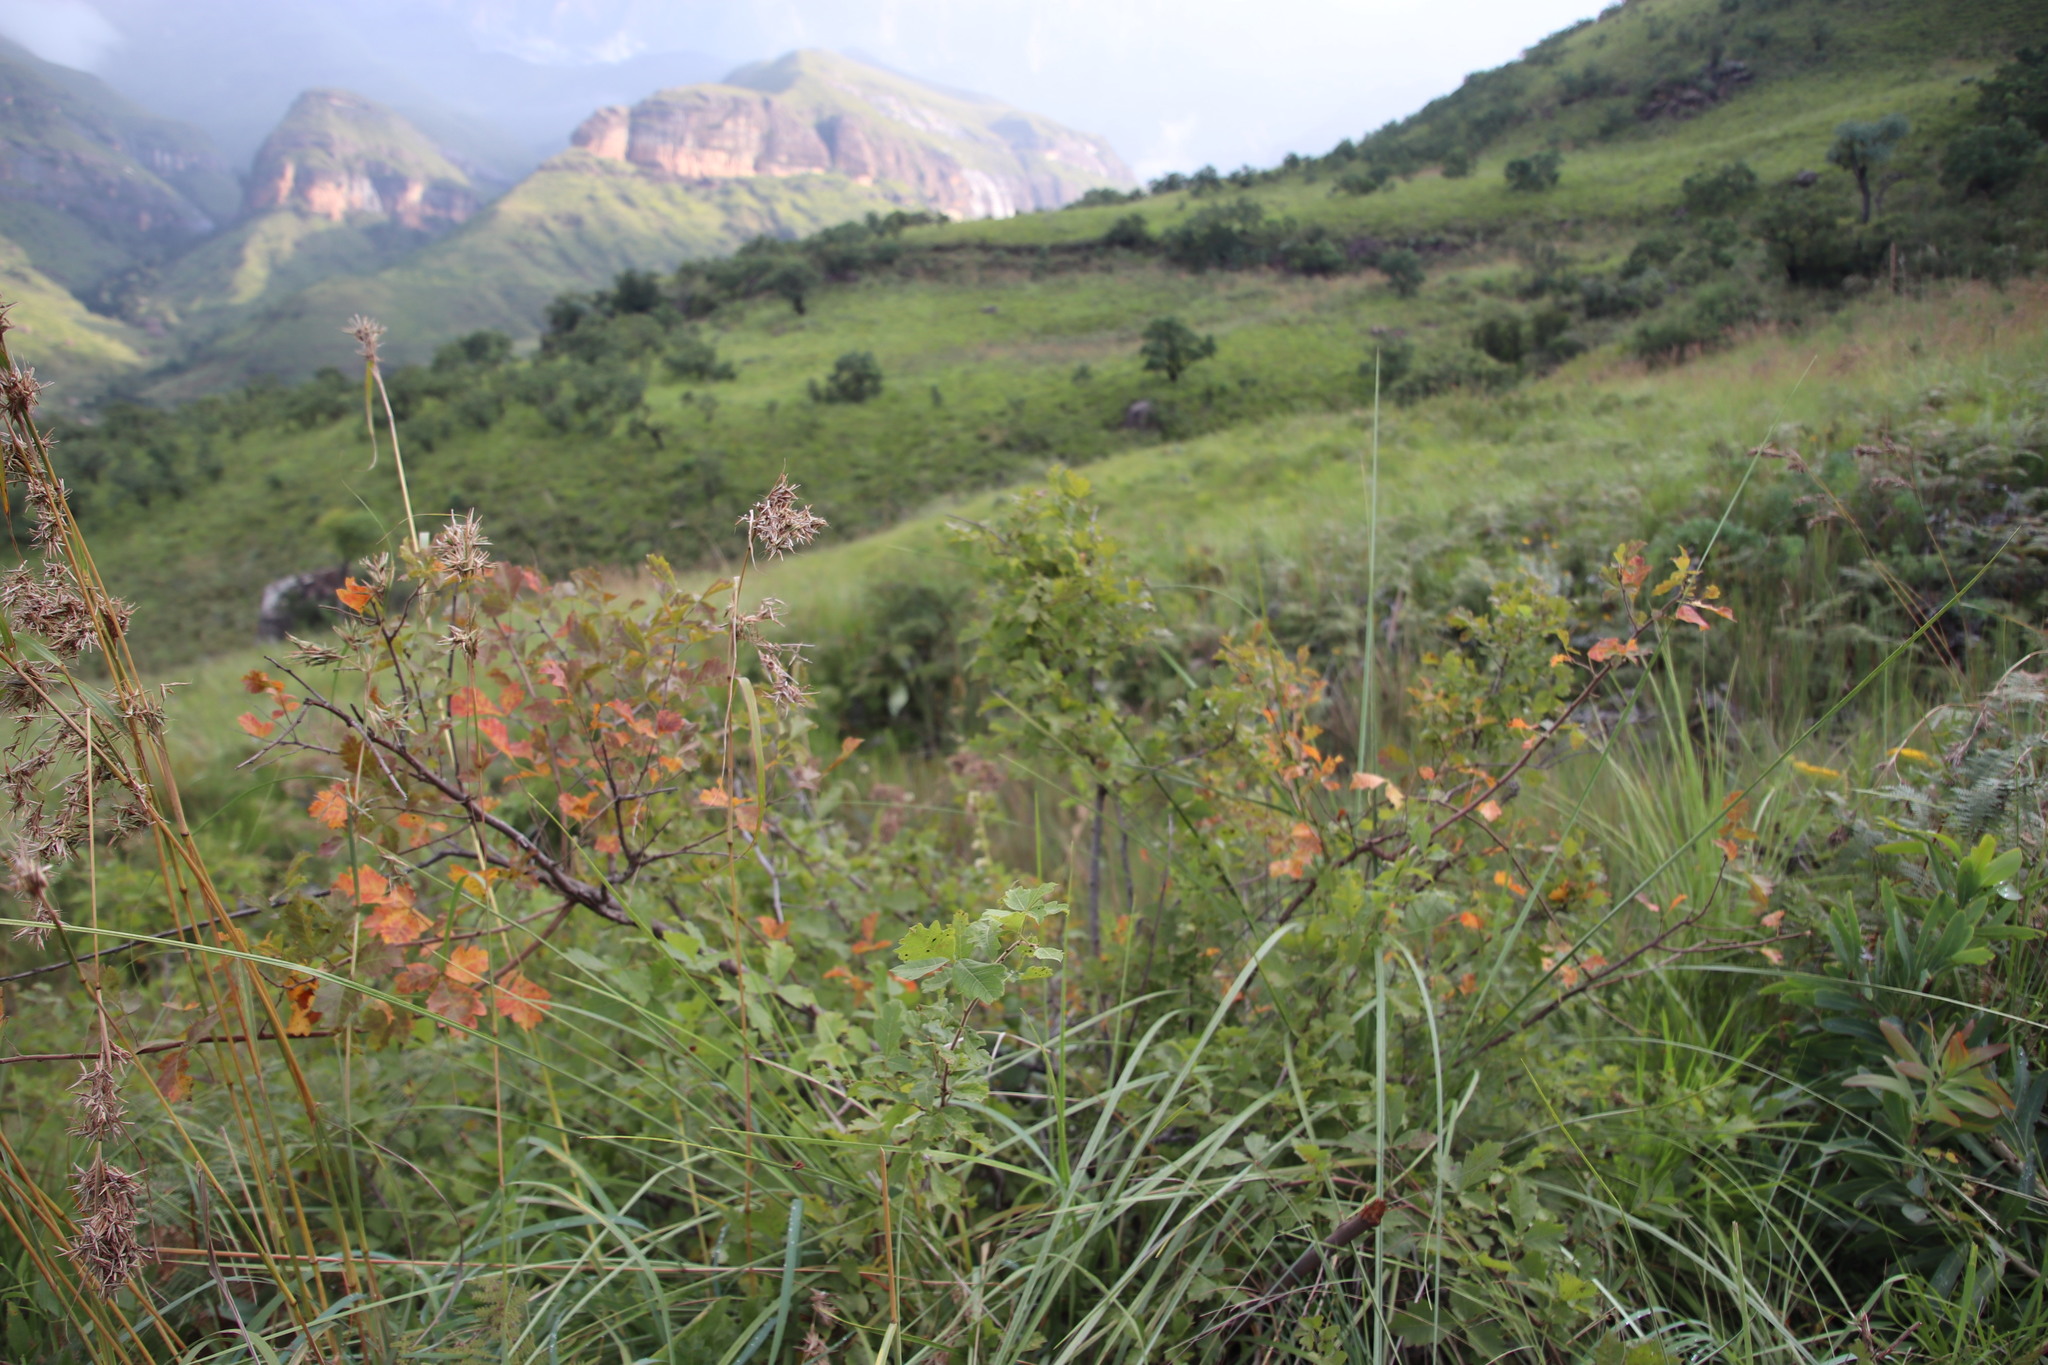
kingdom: Plantae
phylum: Tracheophyta
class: Magnoliopsida
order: Sapindales
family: Anacardiaceae
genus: Searsia
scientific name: Searsia dentata
